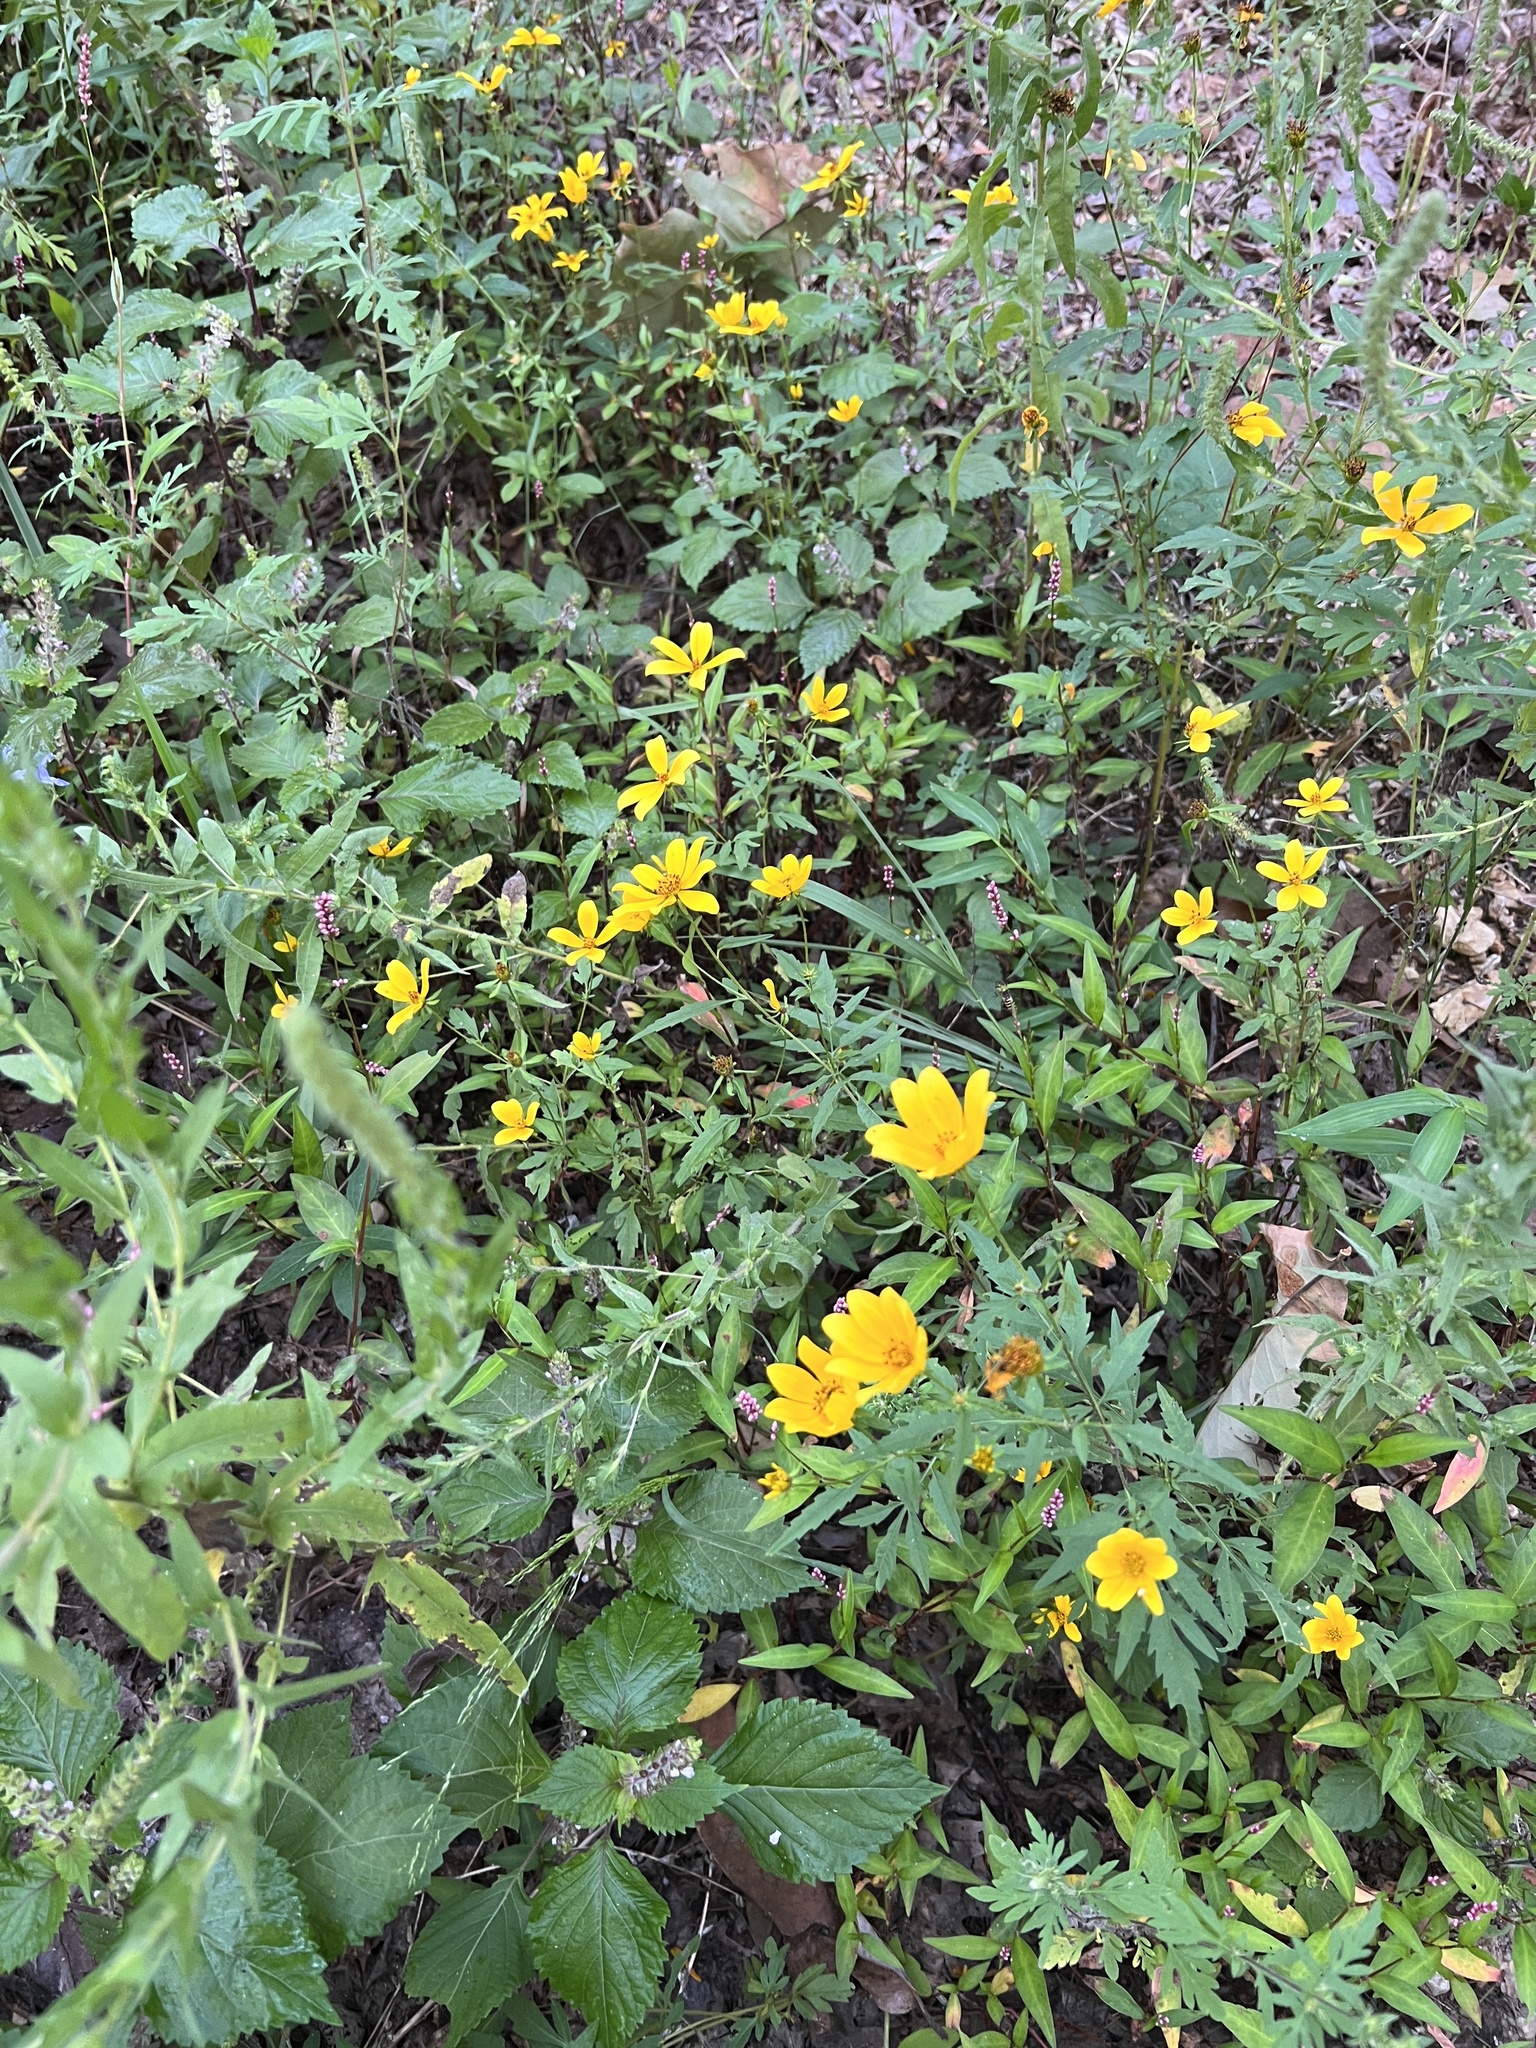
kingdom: Plantae
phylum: Tracheophyta
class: Magnoliopsida
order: Asterales
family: Asteraceae
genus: Bidens
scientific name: Bidens aristosa
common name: Western tickseed
